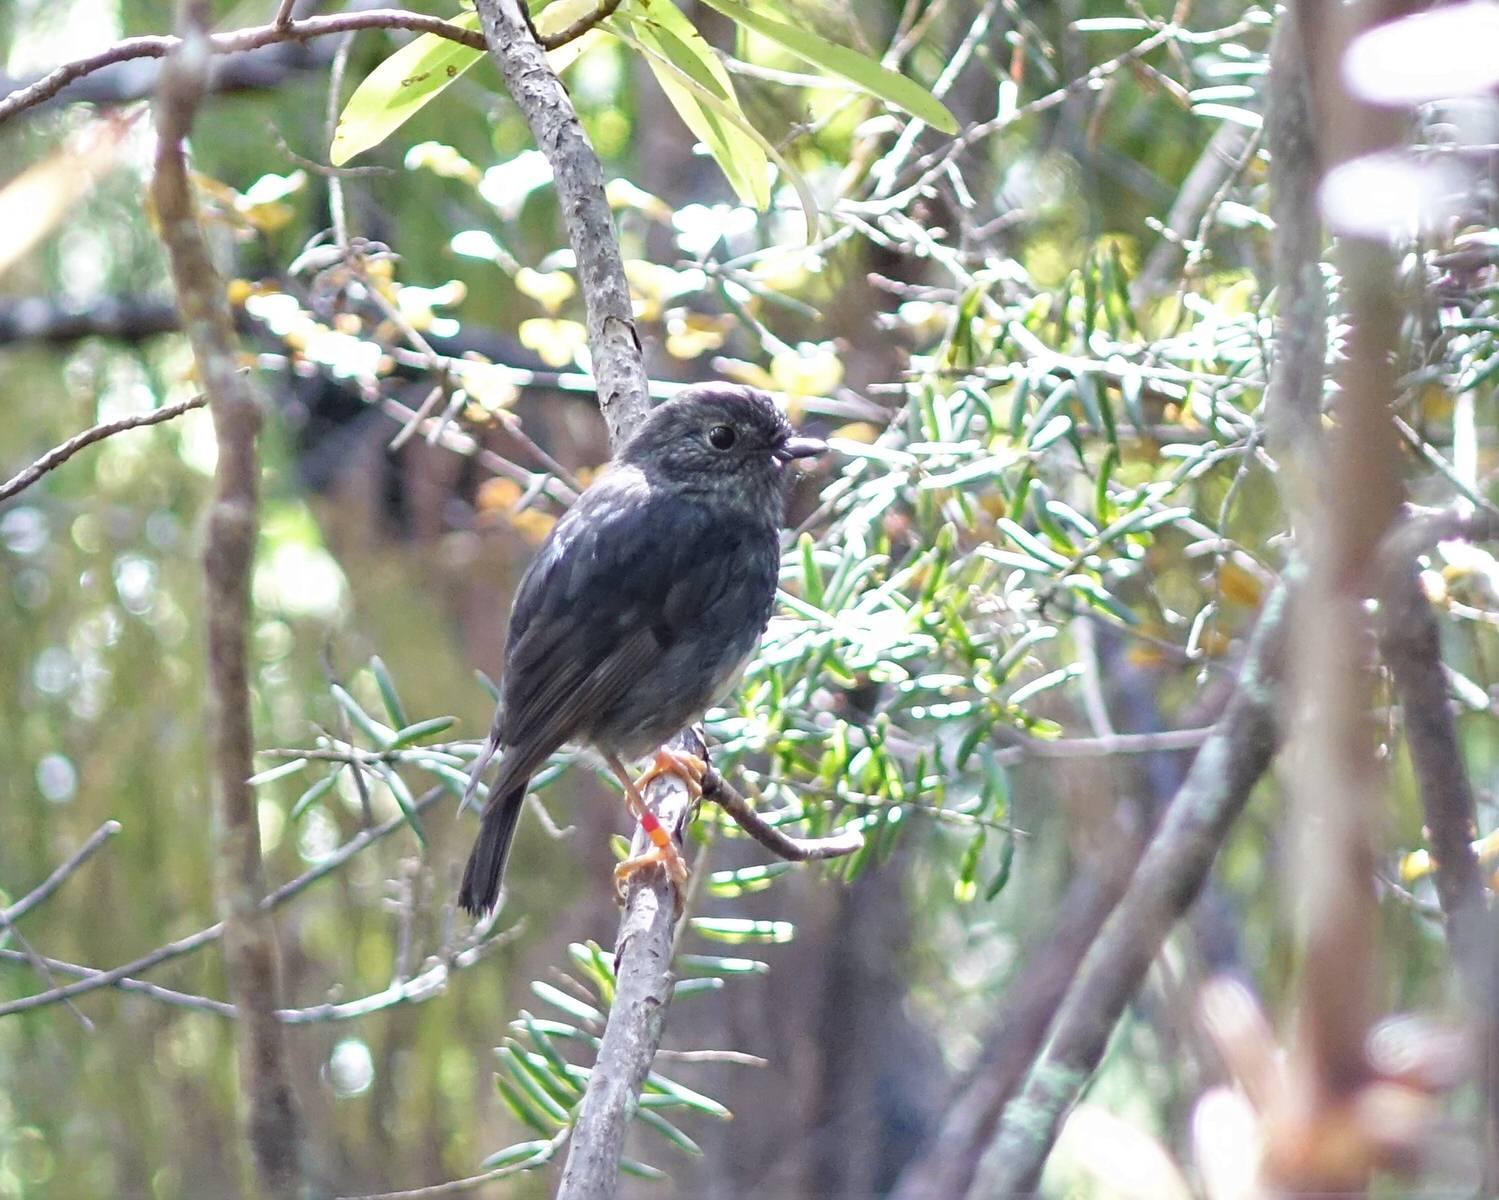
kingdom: Animalia
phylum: Chordata
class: Aves
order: Passeriformes
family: Petroicidae
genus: Petroica
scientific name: Petroica australis
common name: New zealand robin
